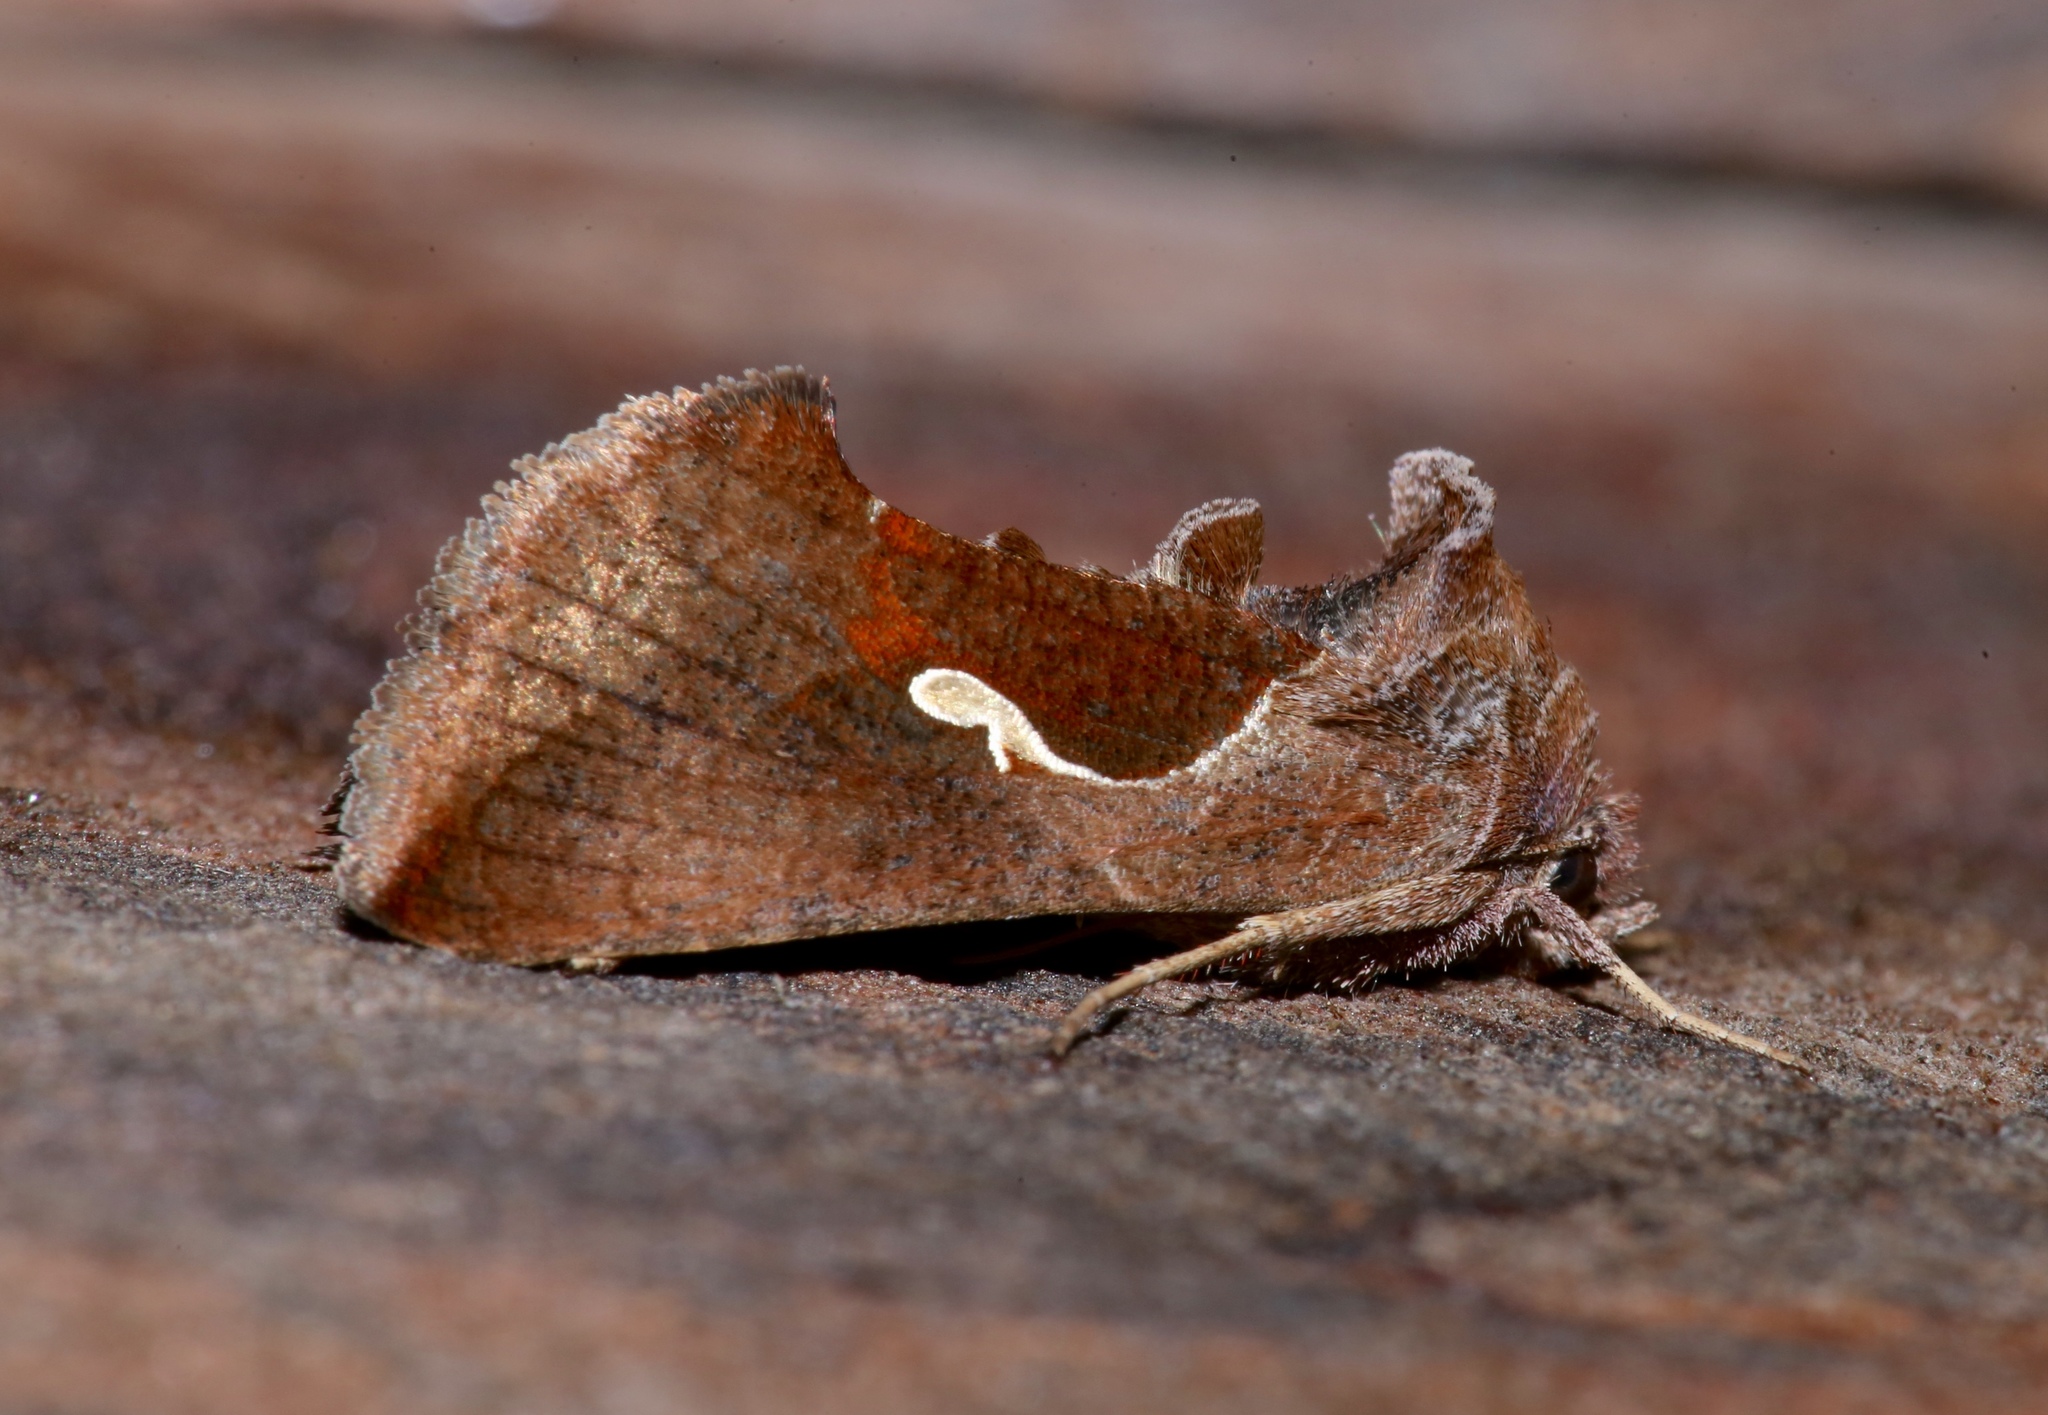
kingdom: Animalia
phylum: Arthropoda
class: Insecta
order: Lepidoptera
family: Noctuidae
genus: Anagrapha
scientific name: Anagrapha falcifera
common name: Celery looper
